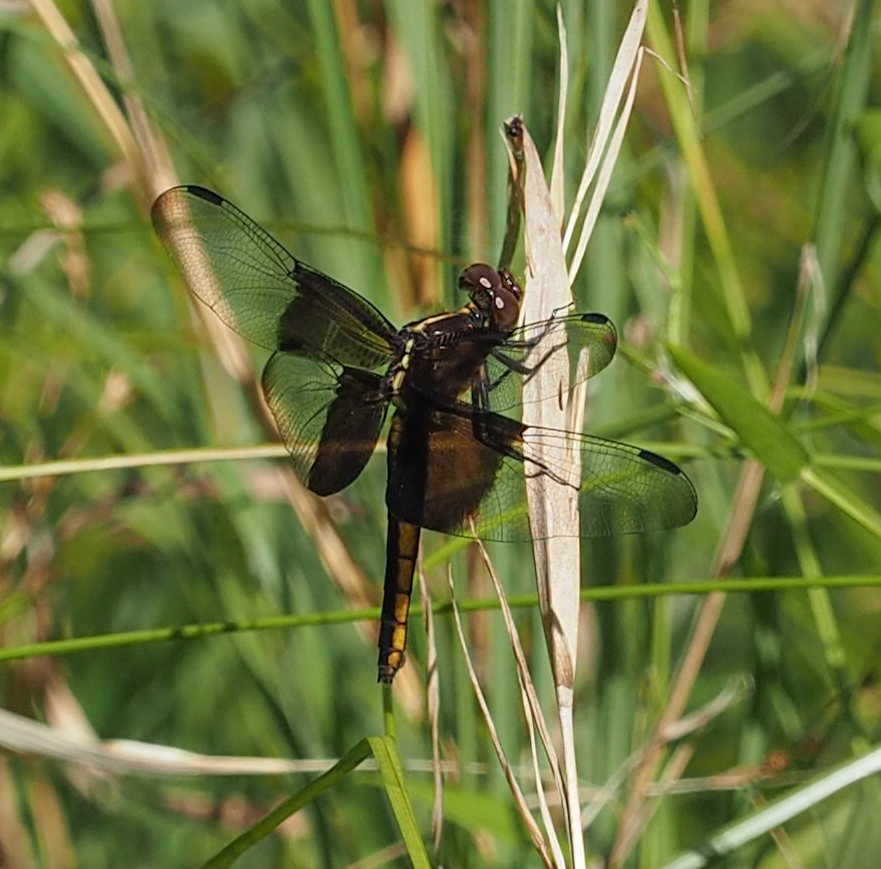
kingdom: Animalia
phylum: Arthropoda
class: Insecta
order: Odonata
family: Libellulidae
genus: Libellula
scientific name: Libellula luctuosa
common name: Widow skimmer
